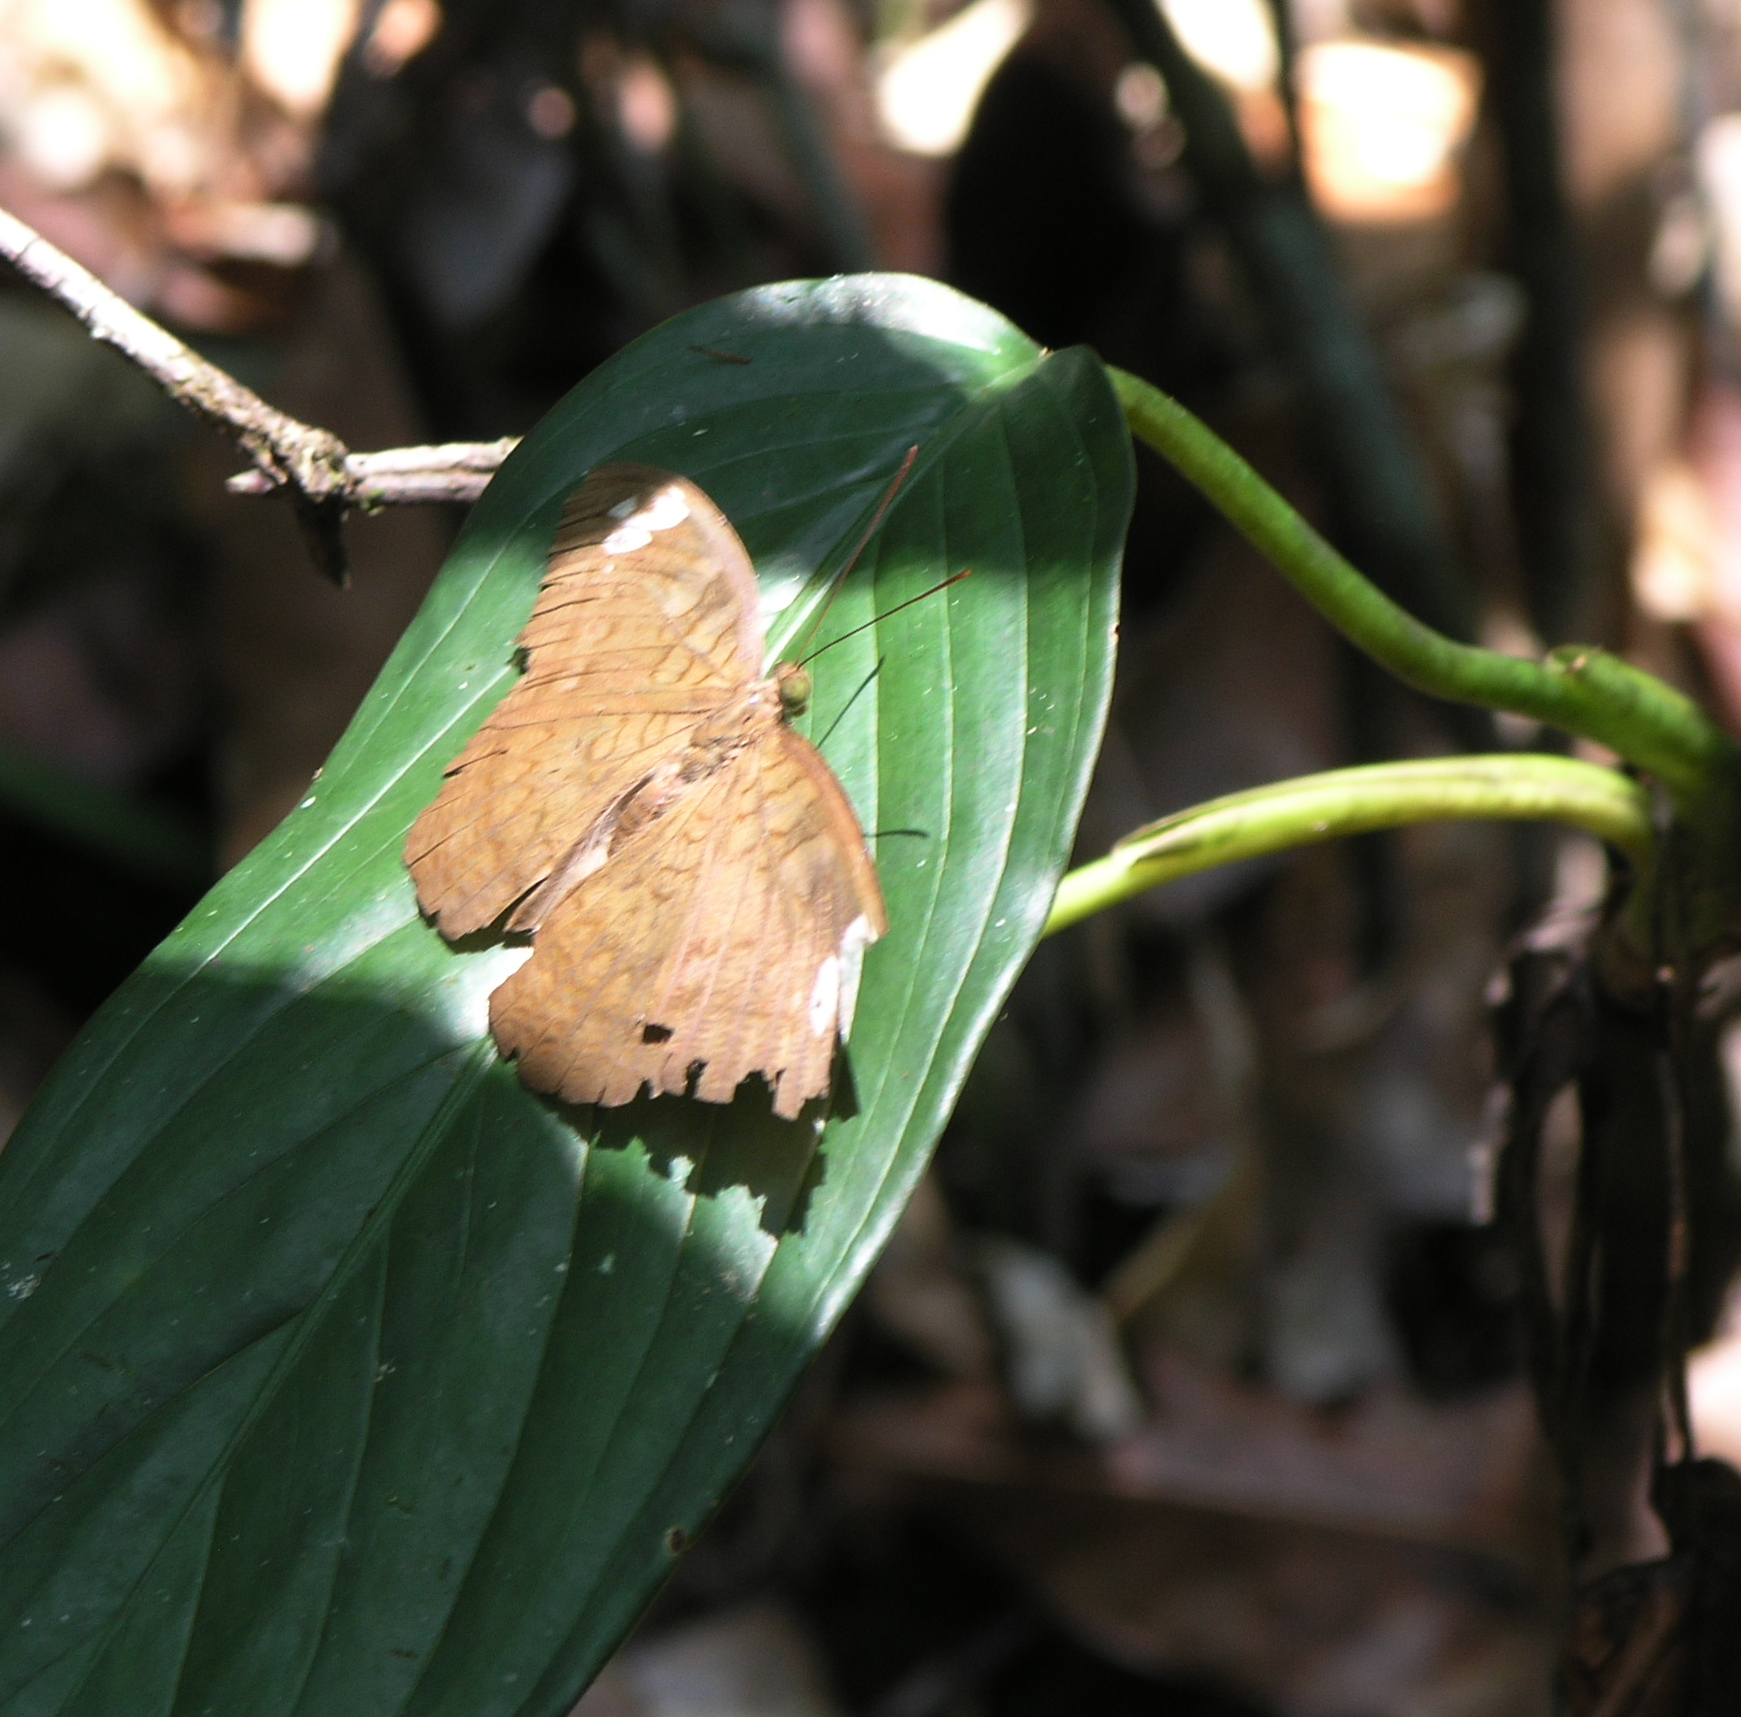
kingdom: Animalia
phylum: Arthropoda
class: Insecta
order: Lepidoptera
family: Nymphalidae
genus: Tanaecia
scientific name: Tanaecia julii
